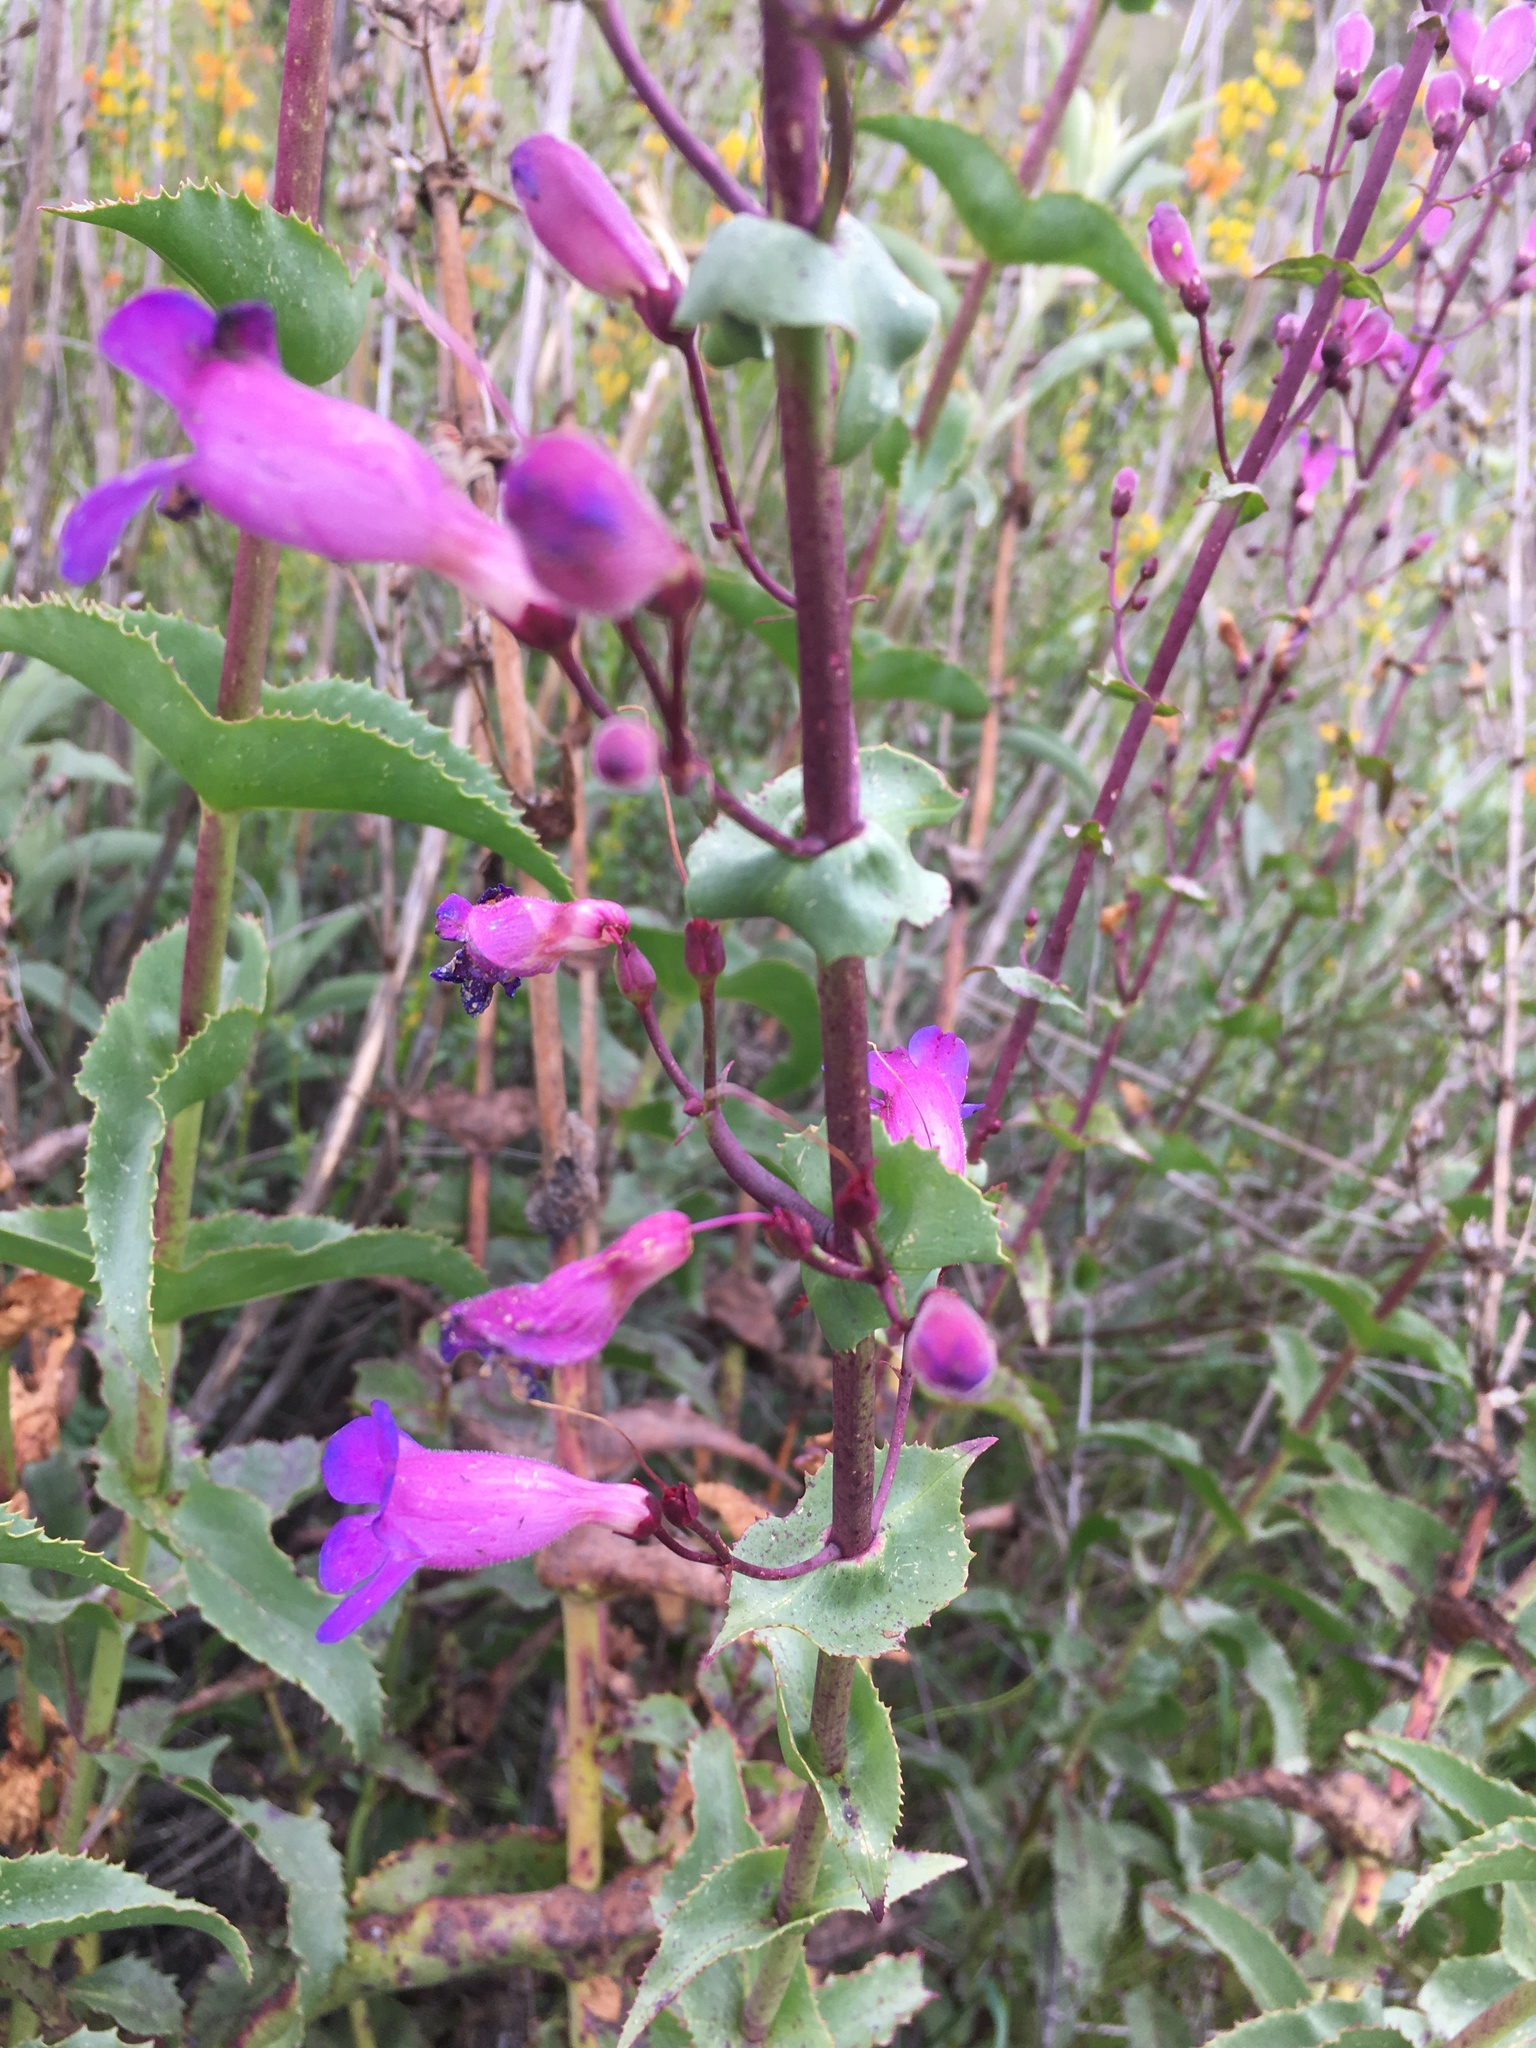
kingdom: Plantae
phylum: Tracheophyta
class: Magnoliopsida
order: Lamiales
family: Plantaginaceae
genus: Penstemon
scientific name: Penstemon spectabilis
